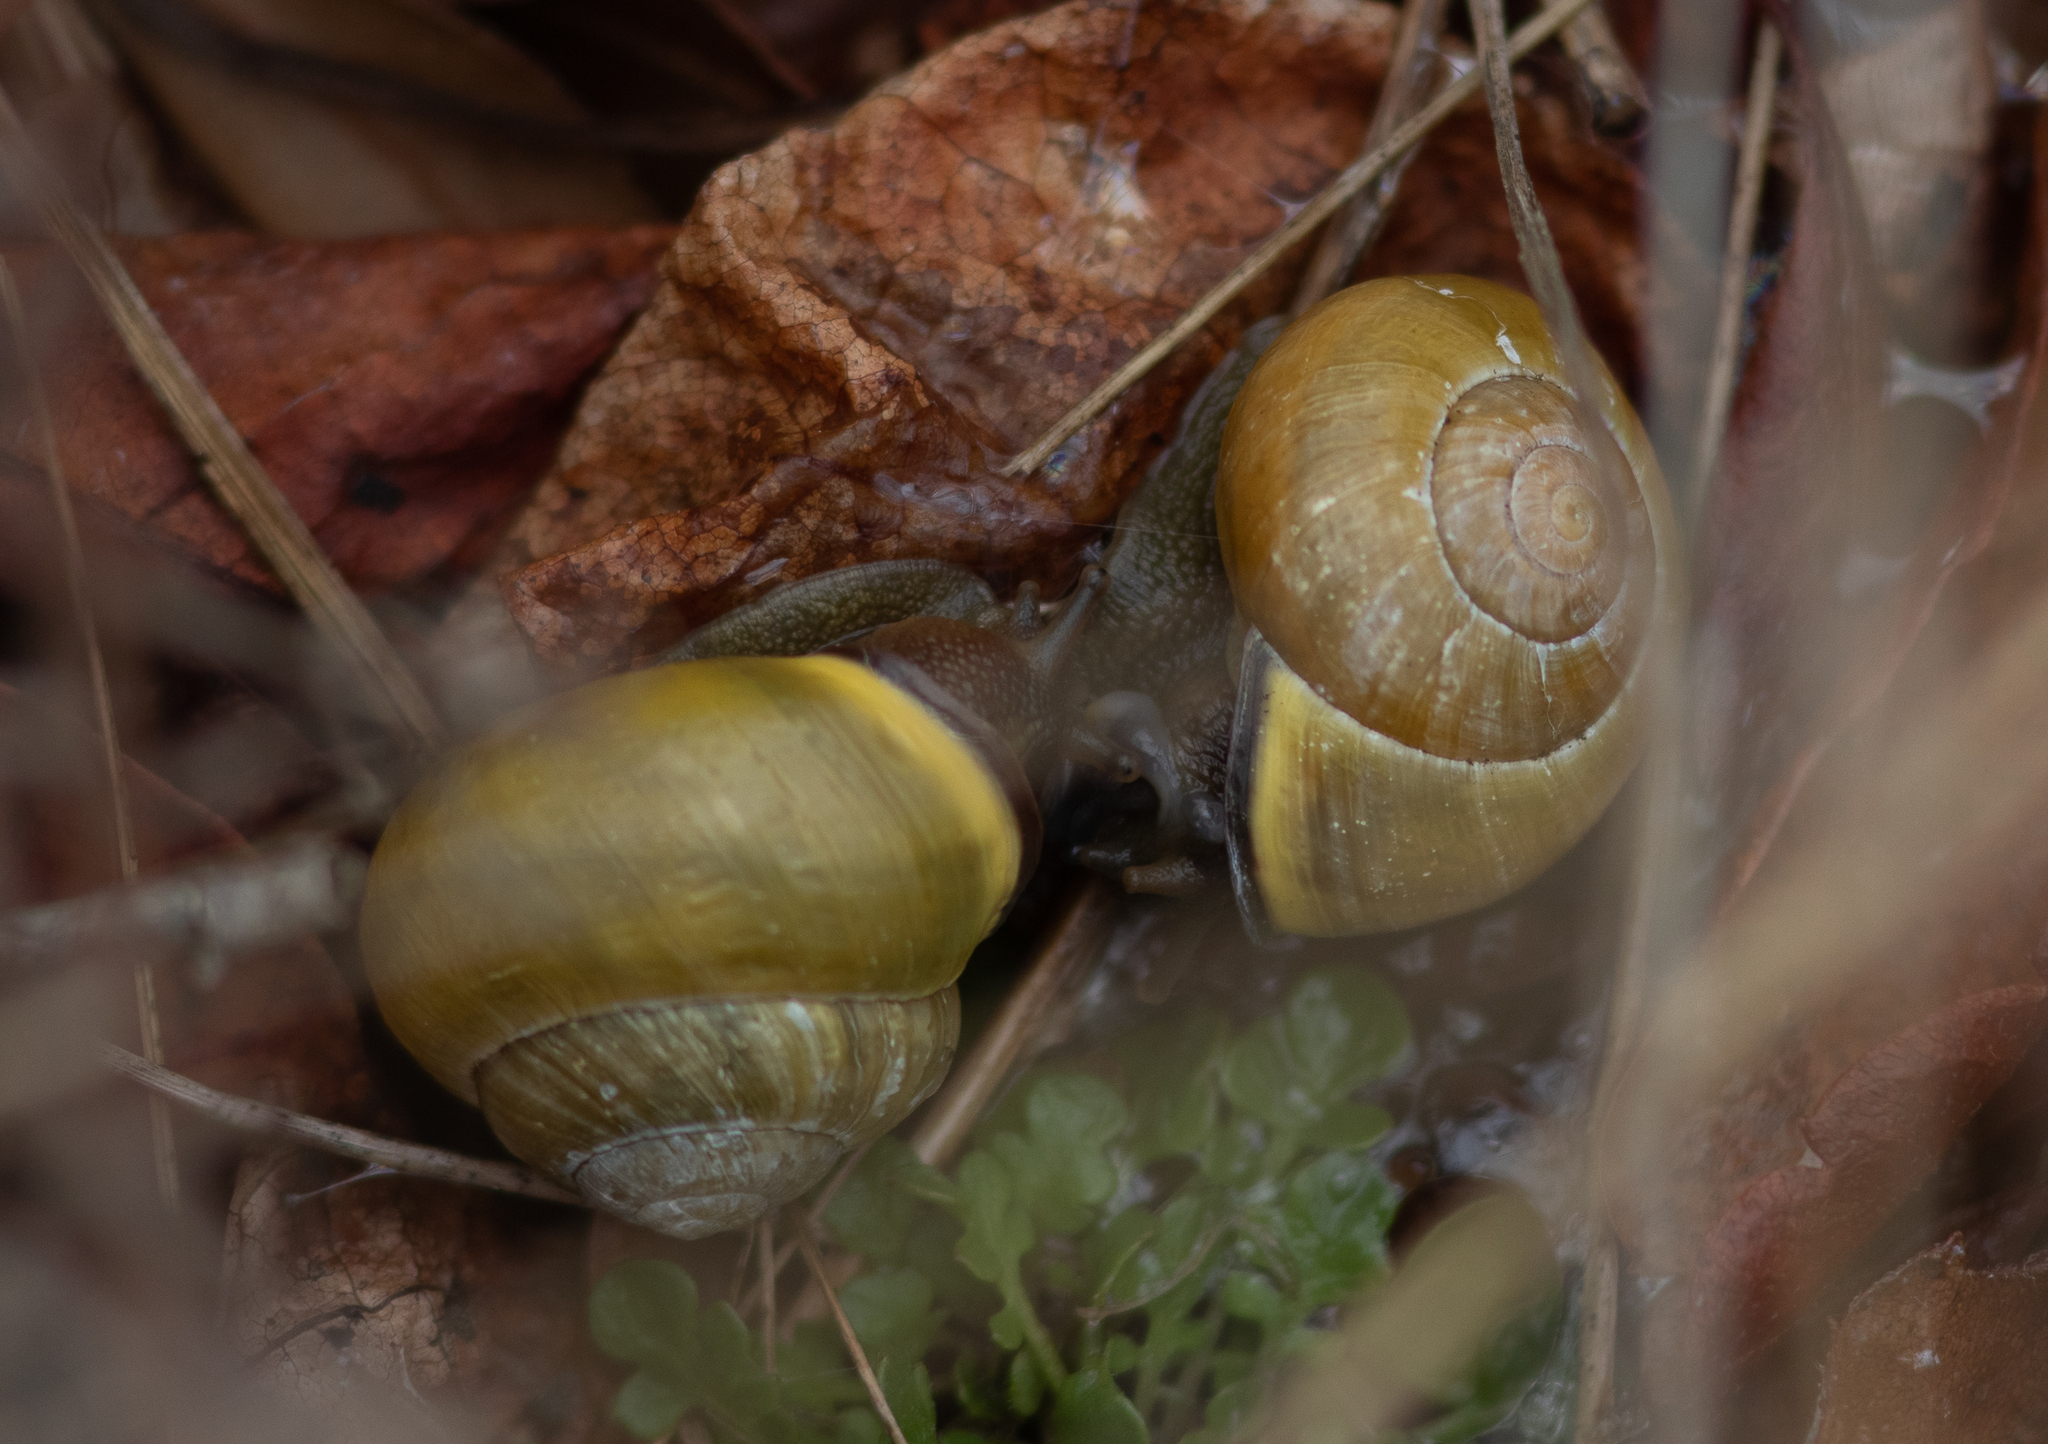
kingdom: Animalia
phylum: Mollusca
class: Gastropoda
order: Stylommatophora
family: Helicidae
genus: Cepaea
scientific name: Cepaea nemoralis
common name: Grovesnail
